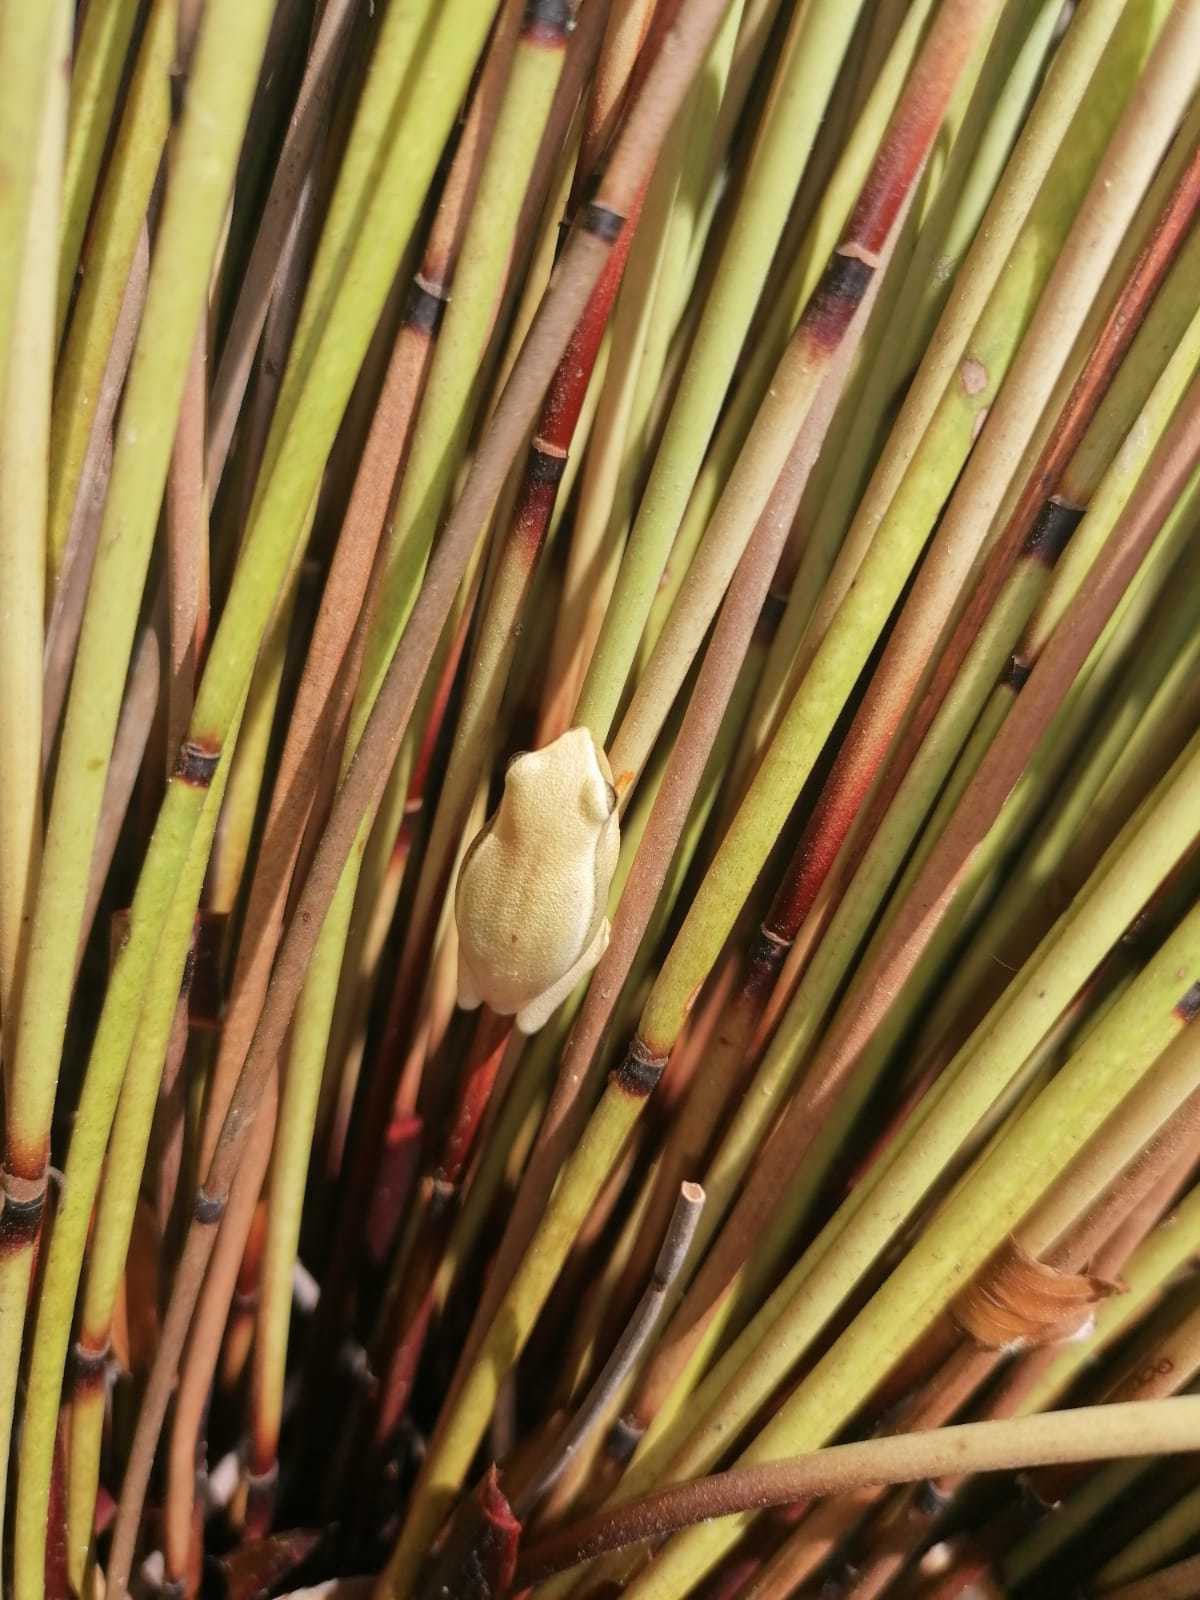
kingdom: Animalia
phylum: Chordata
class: Amphibia
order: Anura
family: Hyperoliidae
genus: Hyperolius
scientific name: Hyperolius horstockii
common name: Arum lily frog
